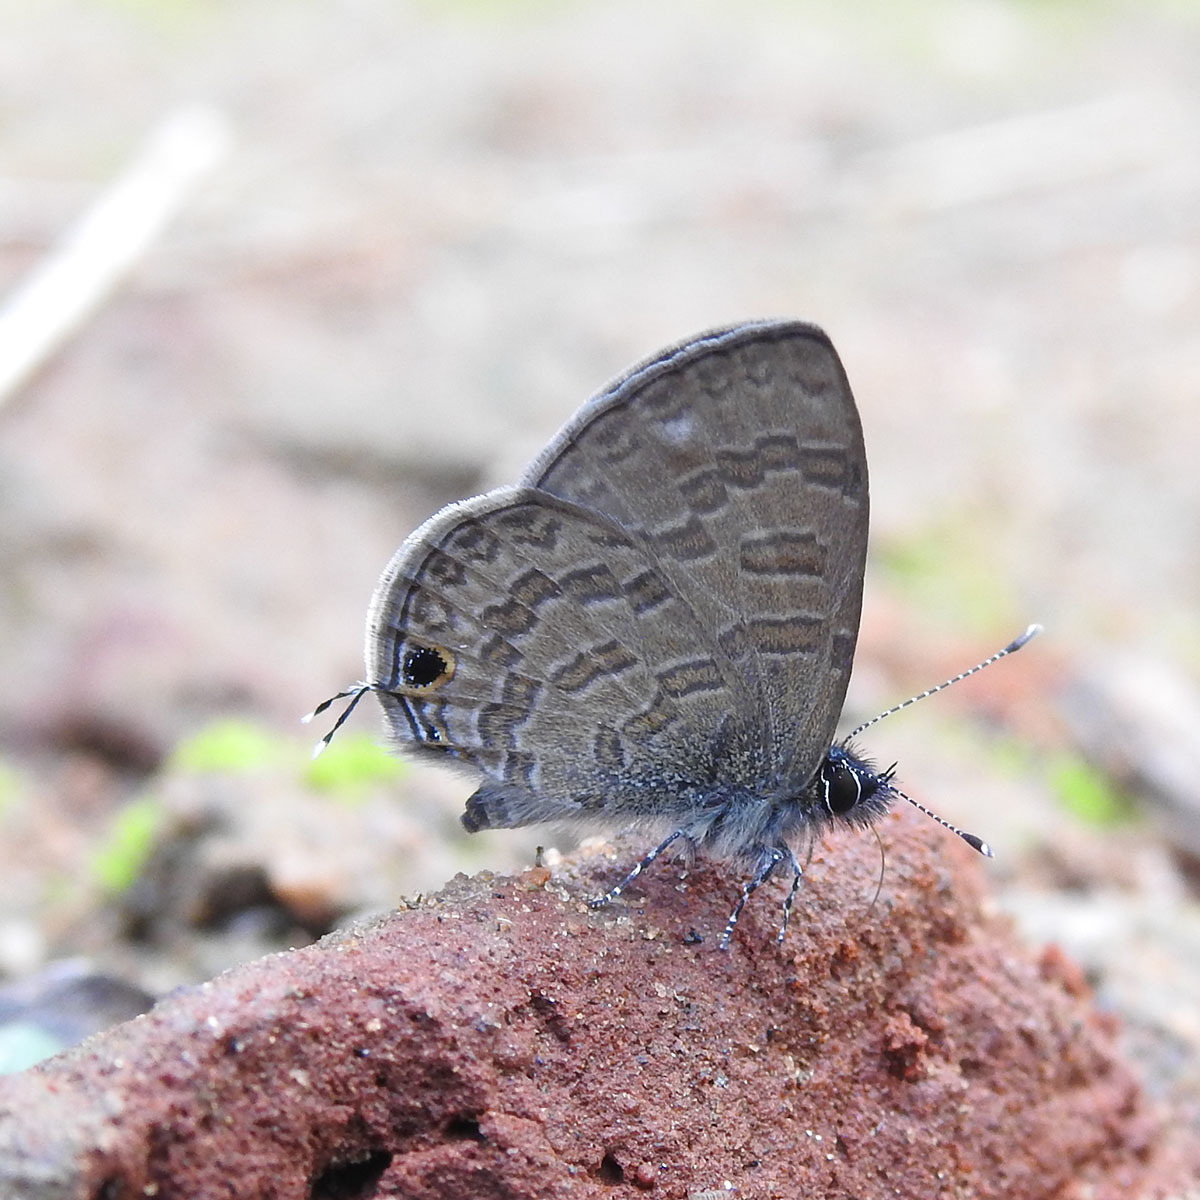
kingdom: Animalia
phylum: Arthropoda
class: Insecta
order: Lepidoptera
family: Lycaenidae
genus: Prosotas
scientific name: Prosotas nora
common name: Common line blue
